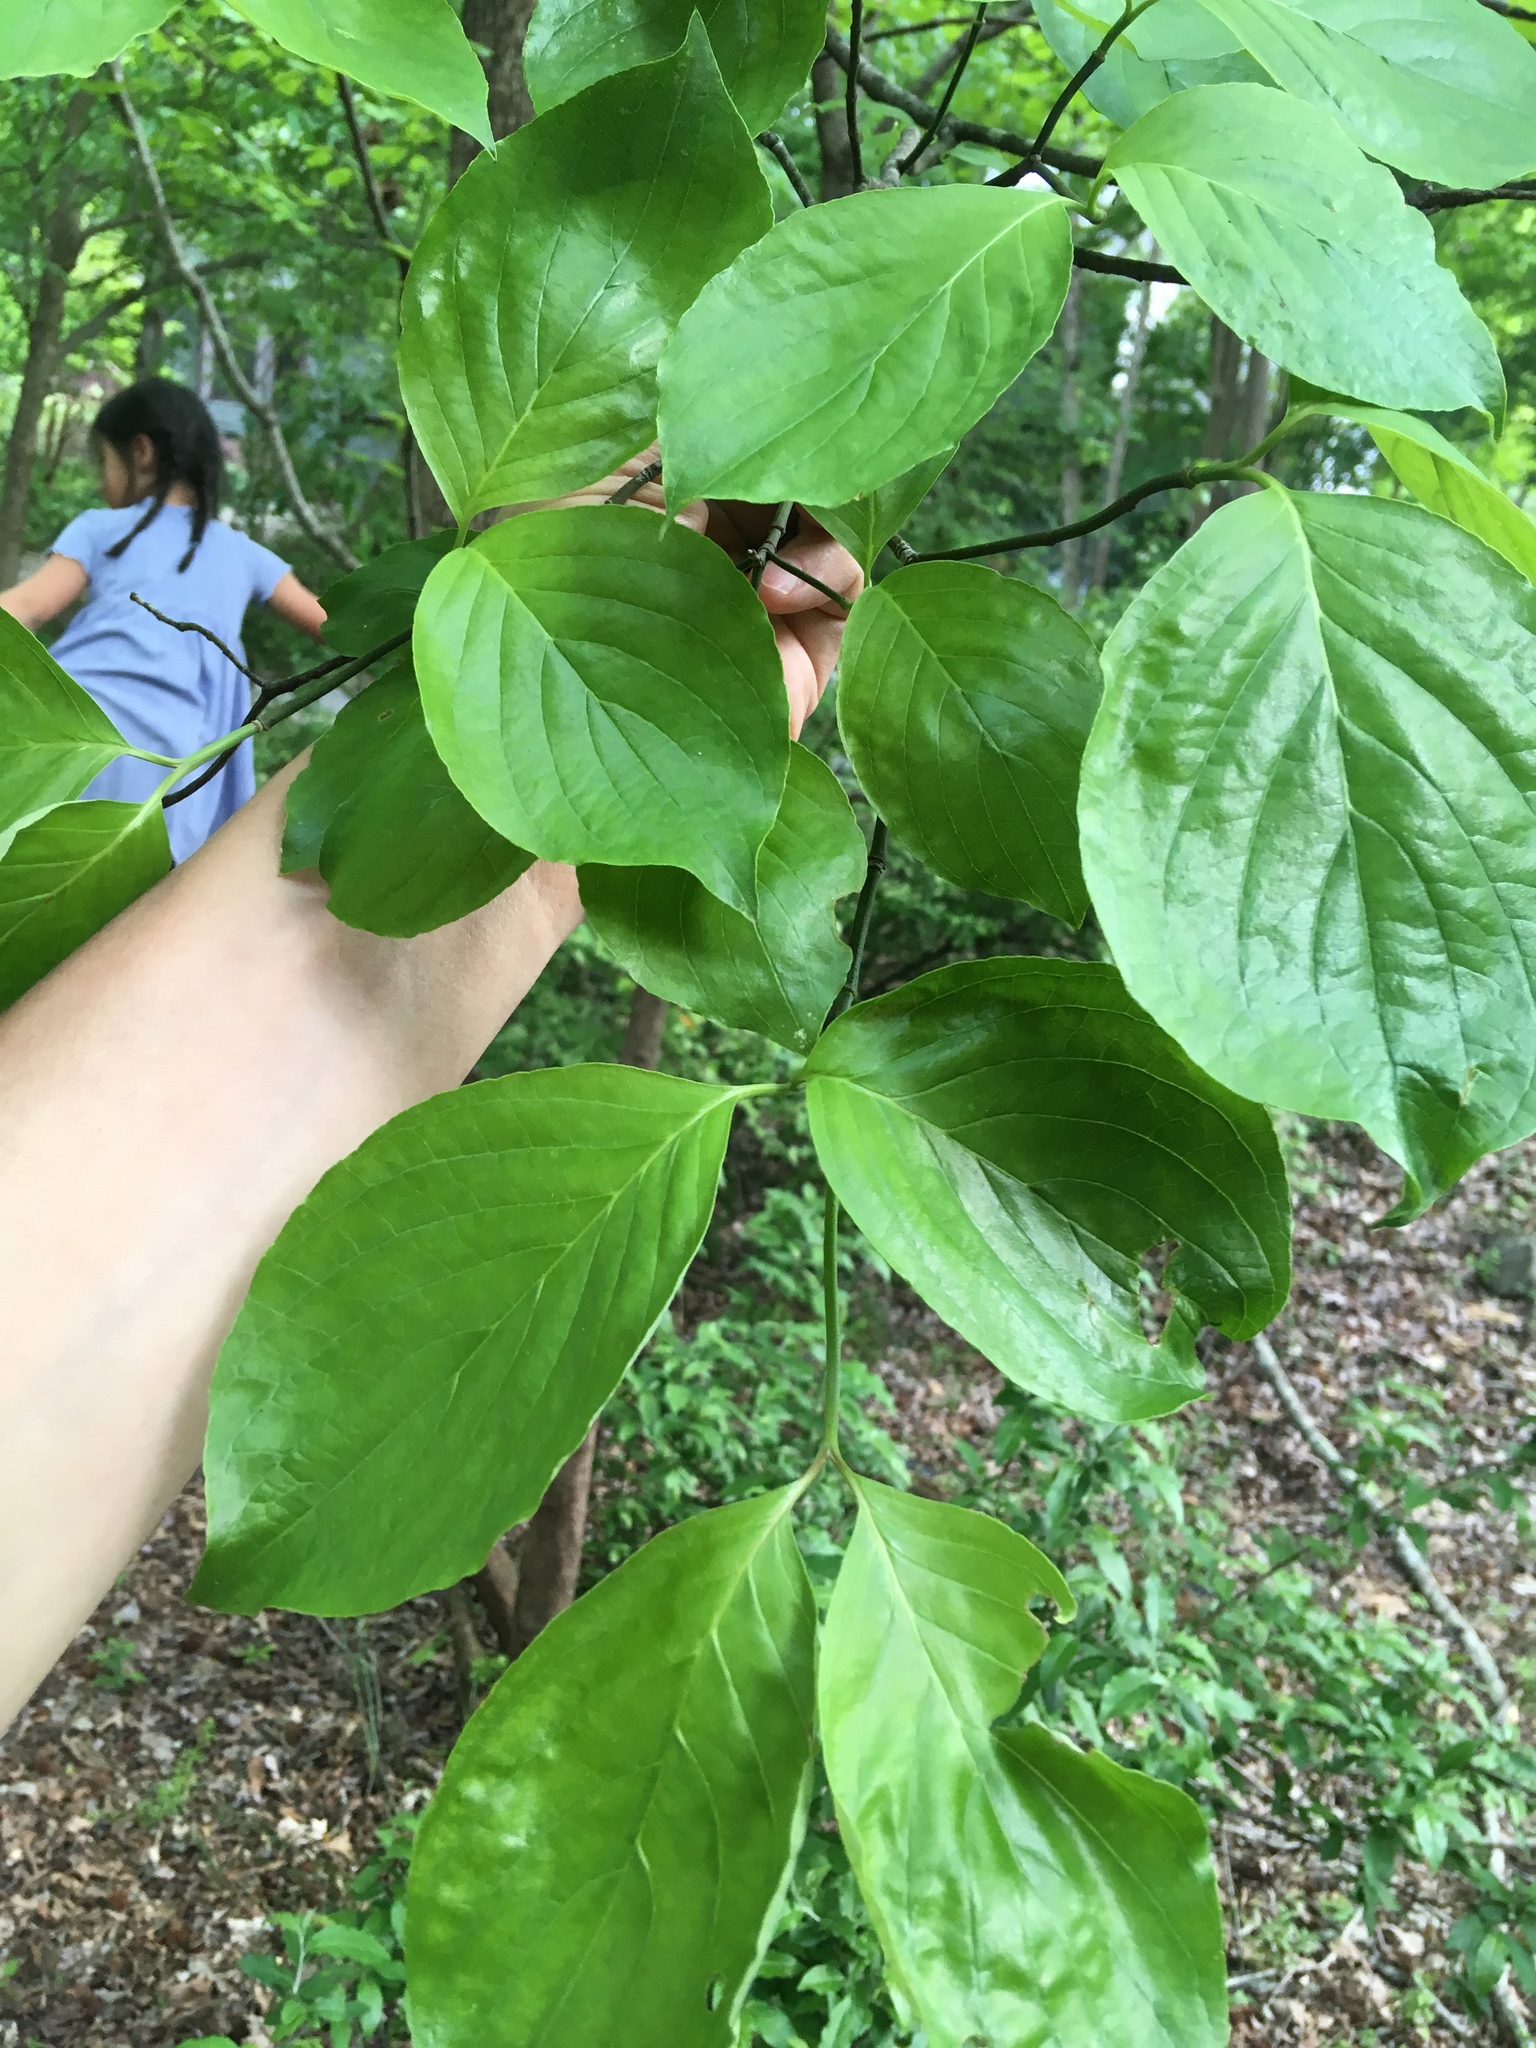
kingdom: Plantae
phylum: Tracheophyta
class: Magnoliopsida
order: Cornales
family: Cornaceae
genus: Cornus
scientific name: Cornus florida
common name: Flowering dogwood
